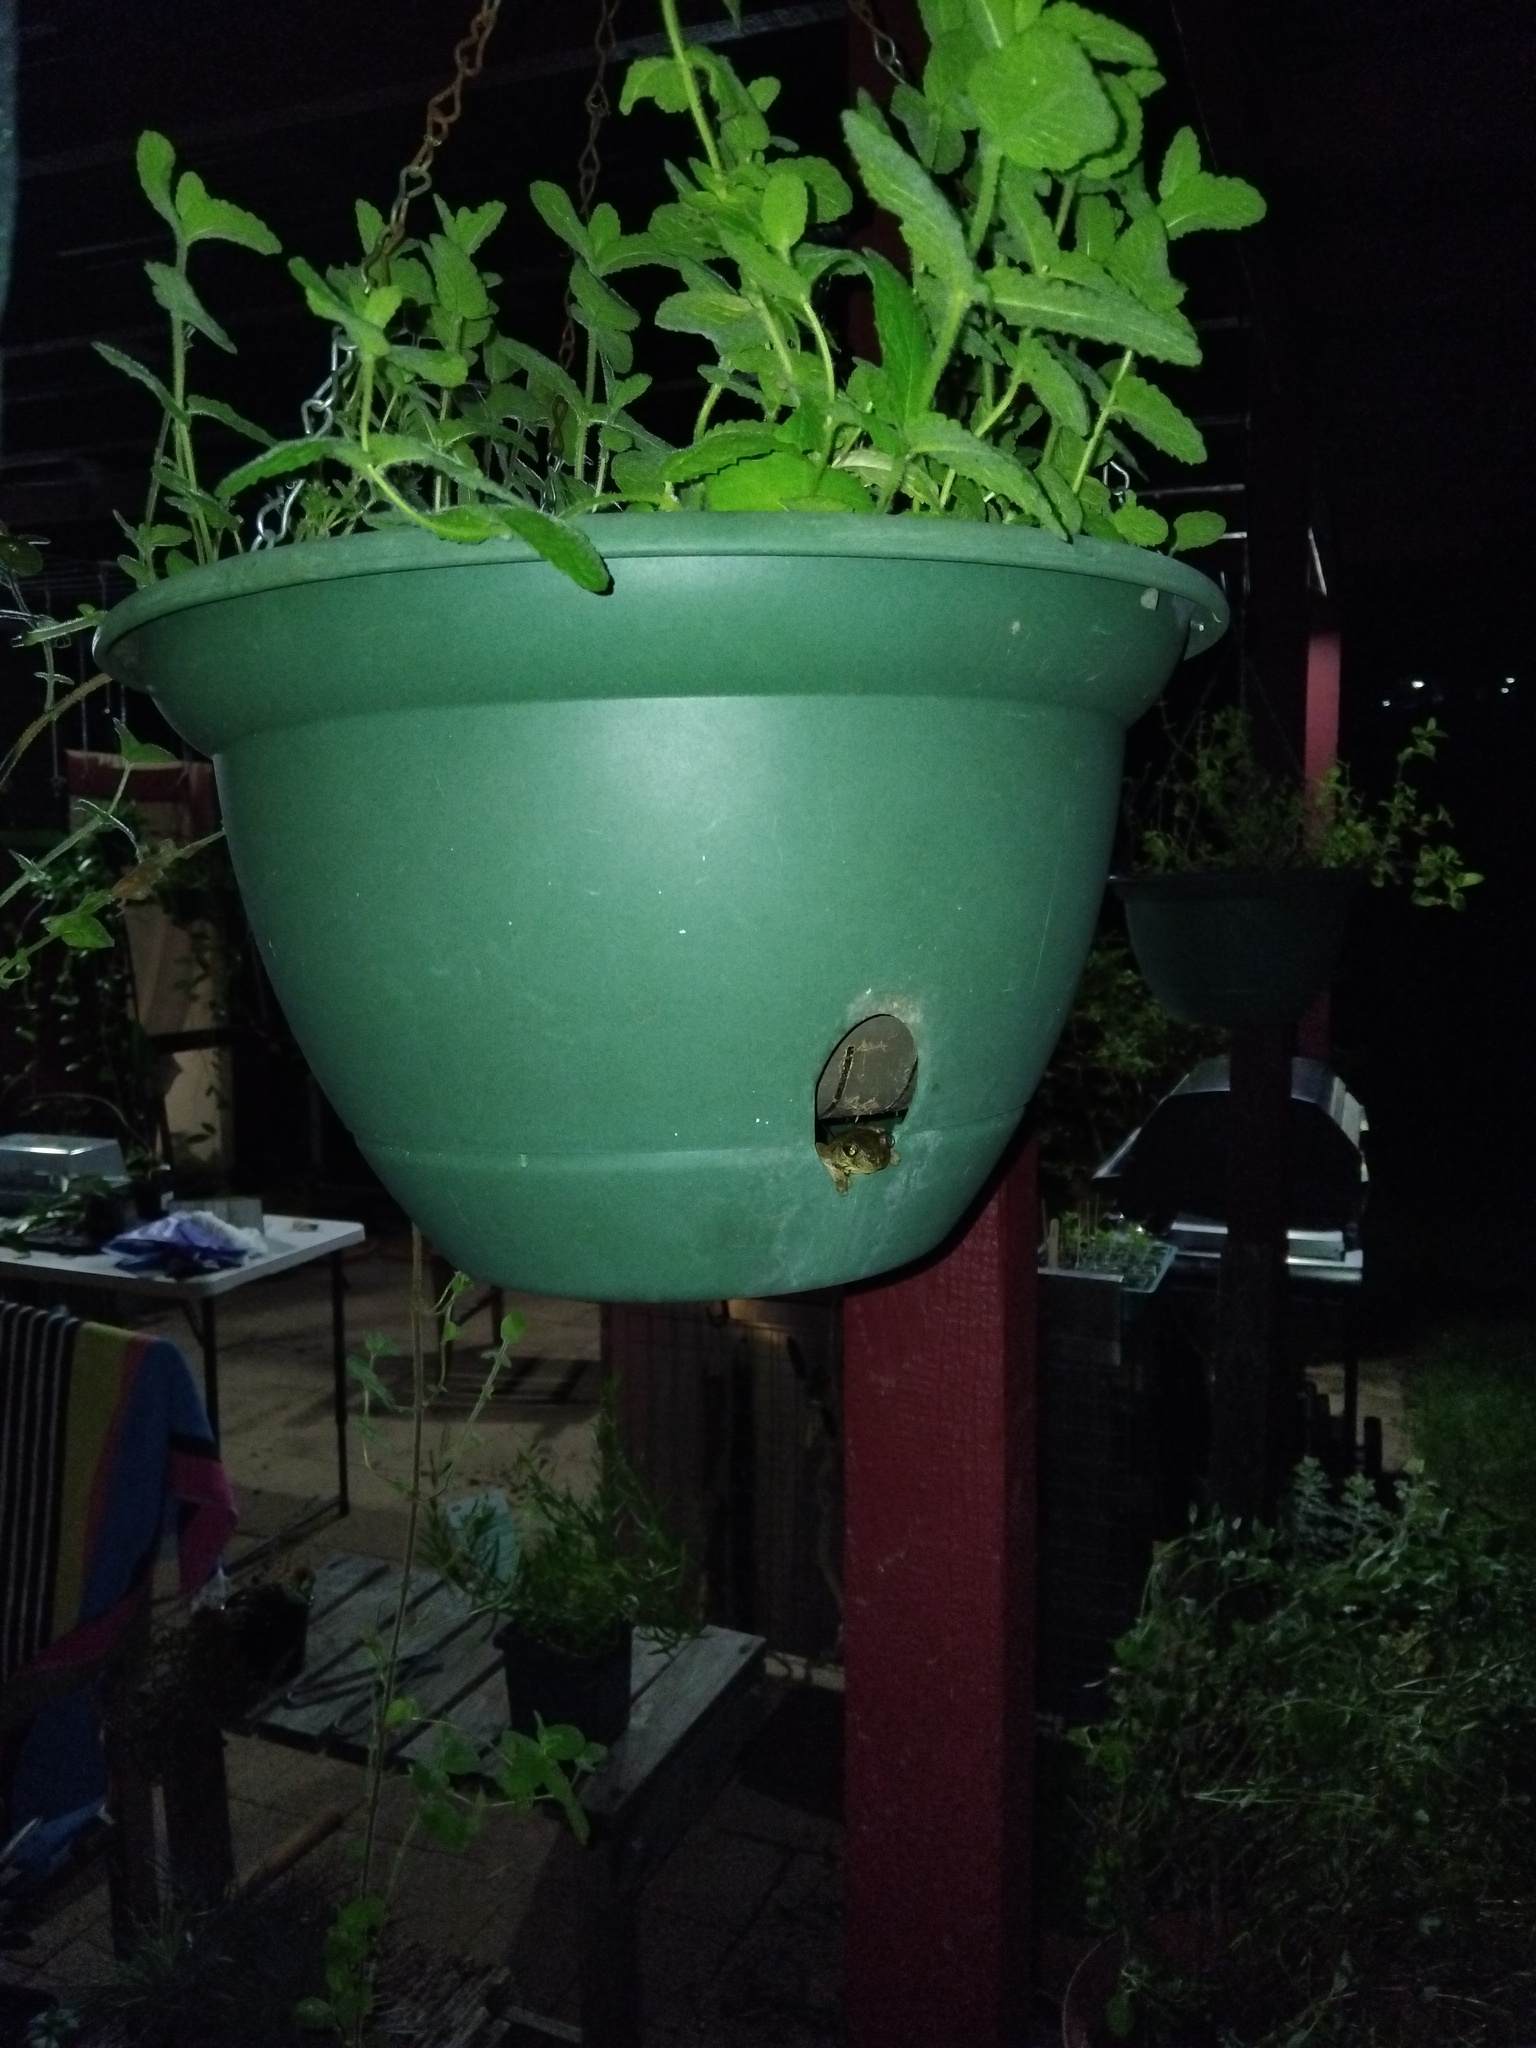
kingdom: Animalia
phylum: Chordata
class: Amphibia
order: Anura
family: Pelodryadidae
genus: Litoria
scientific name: Litoria peronii
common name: Emerald spotted treefrog
